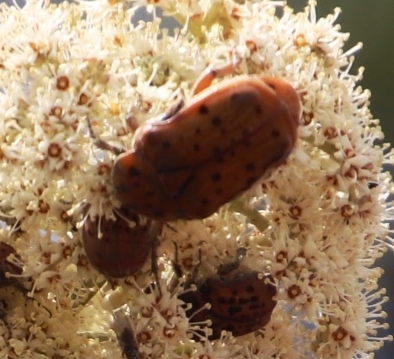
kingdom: Animalia
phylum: Arthropoda
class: Insecta
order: Coleoptera
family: Scarabaeidae
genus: Atrichelaphinis
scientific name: Atrichelaphinis nigropunctulata
